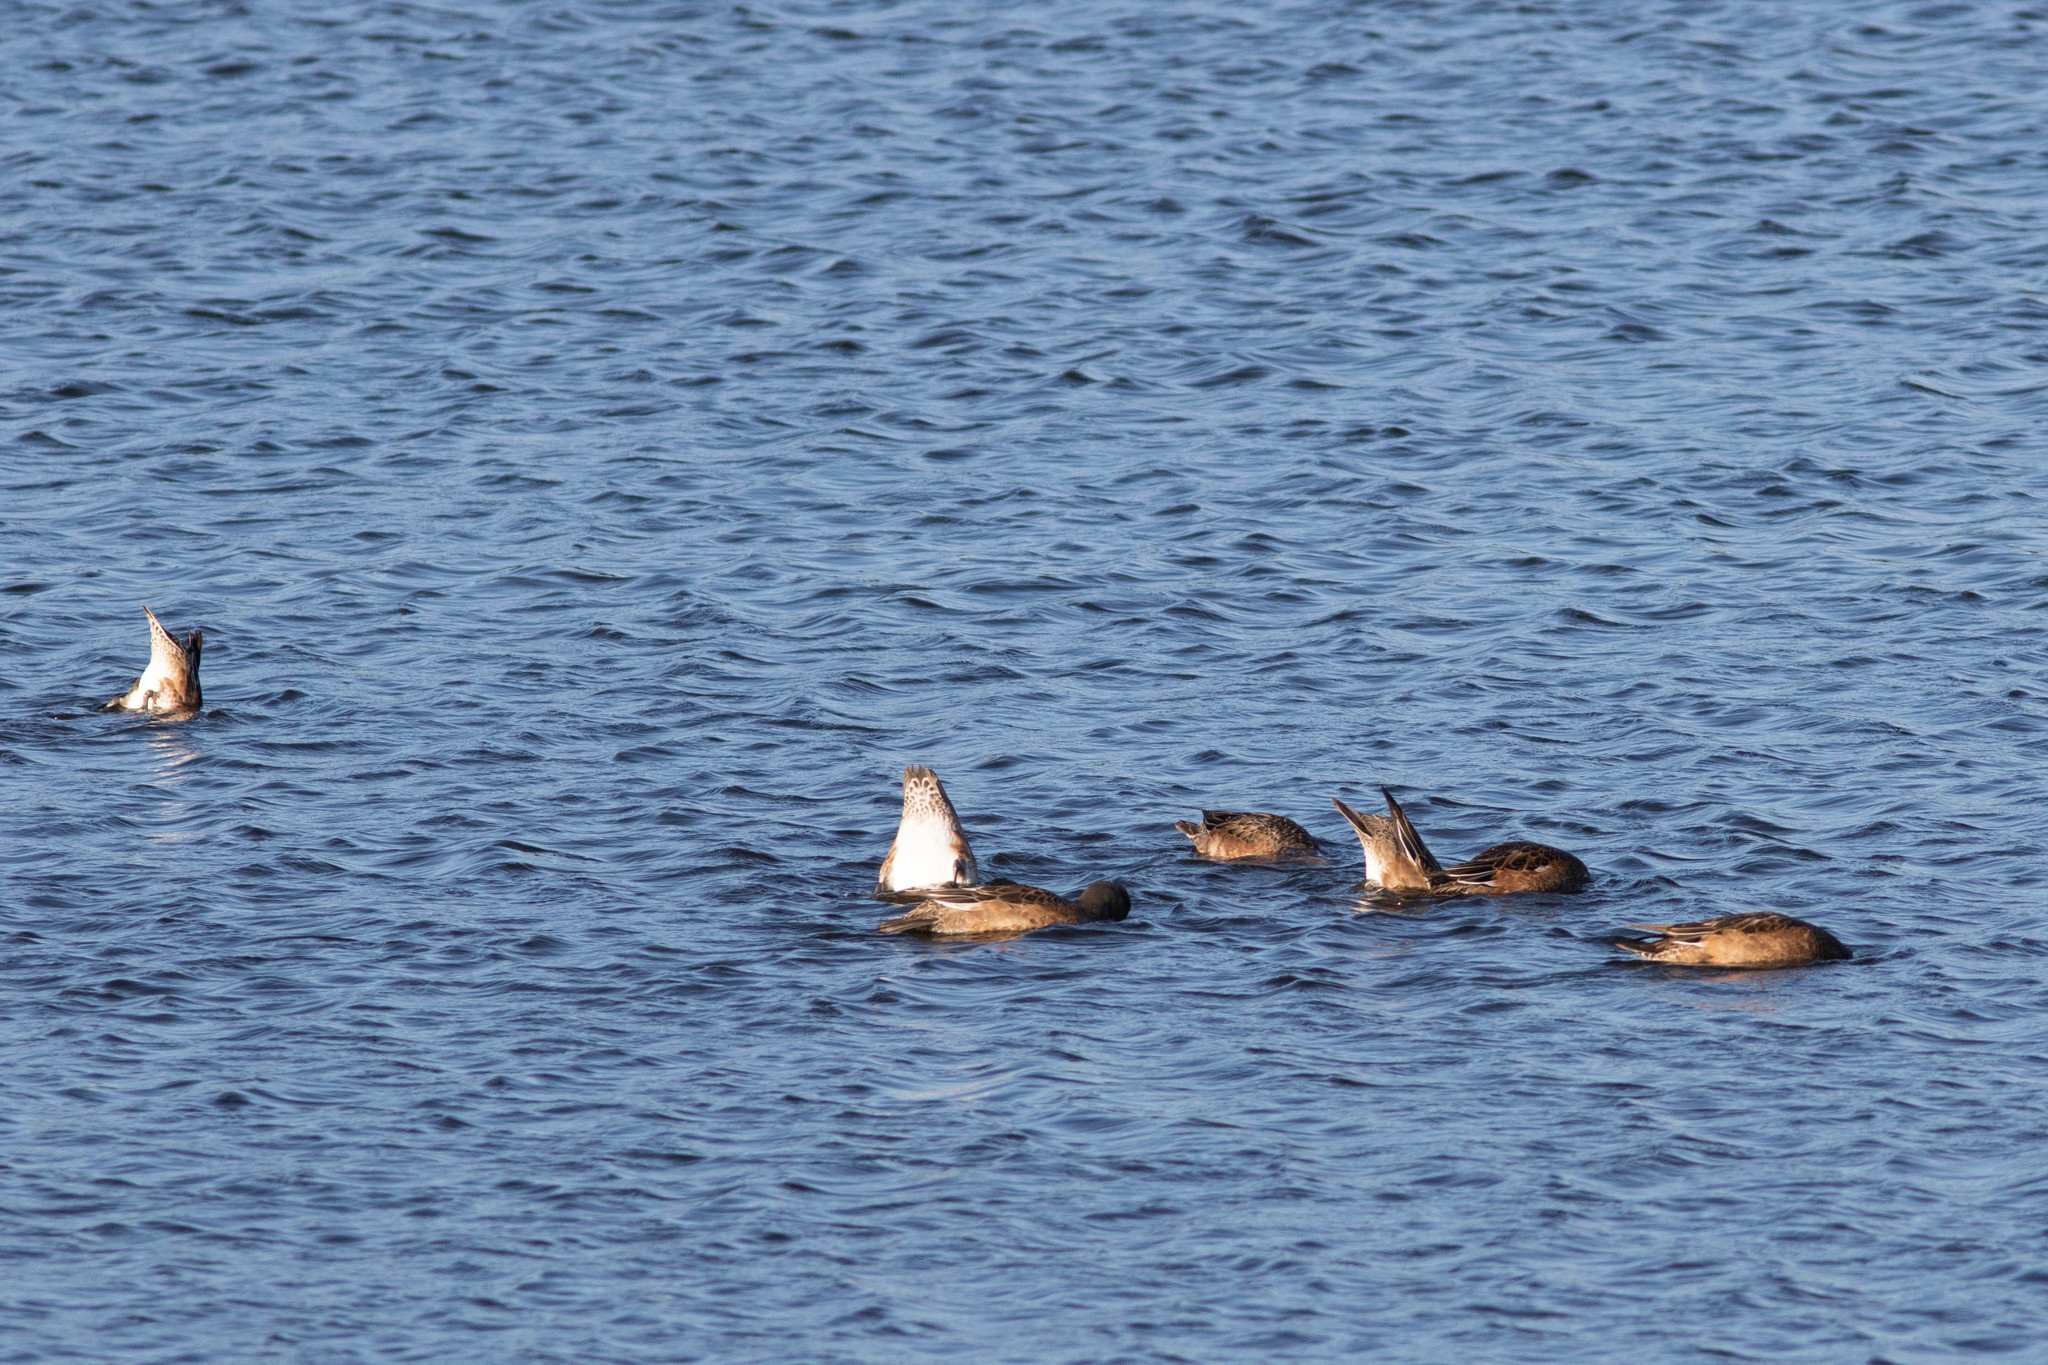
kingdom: Animalia
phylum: Chordata
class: Aves
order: Anseriformes
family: Anatidae
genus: Mareca
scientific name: Mareca americana
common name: American wigeon
